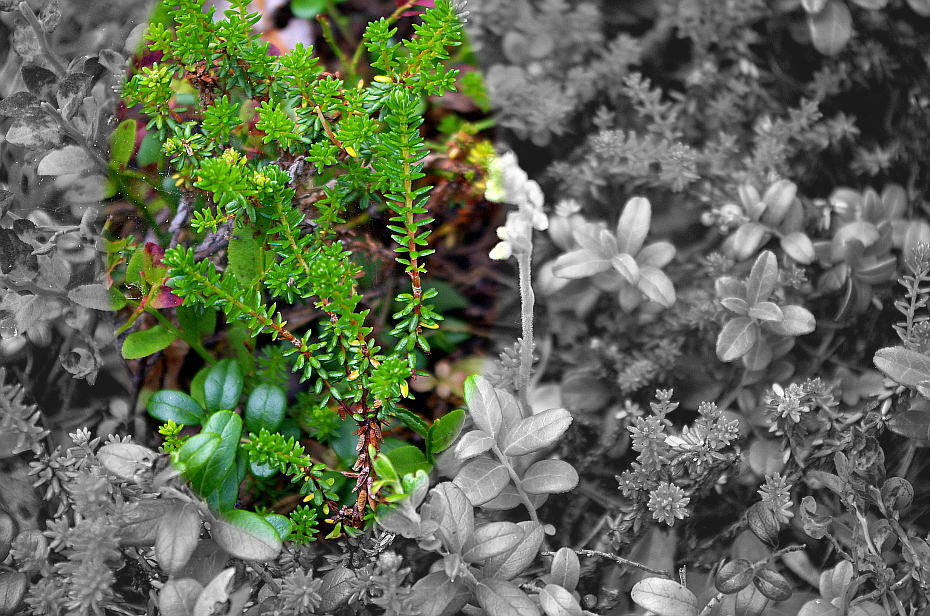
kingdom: Plantae
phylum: Tracheophyta
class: Magnoliopsida
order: Ericales
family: Ericaceae
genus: Empetrum
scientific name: Empetrum nigrum
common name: Black crowberry
